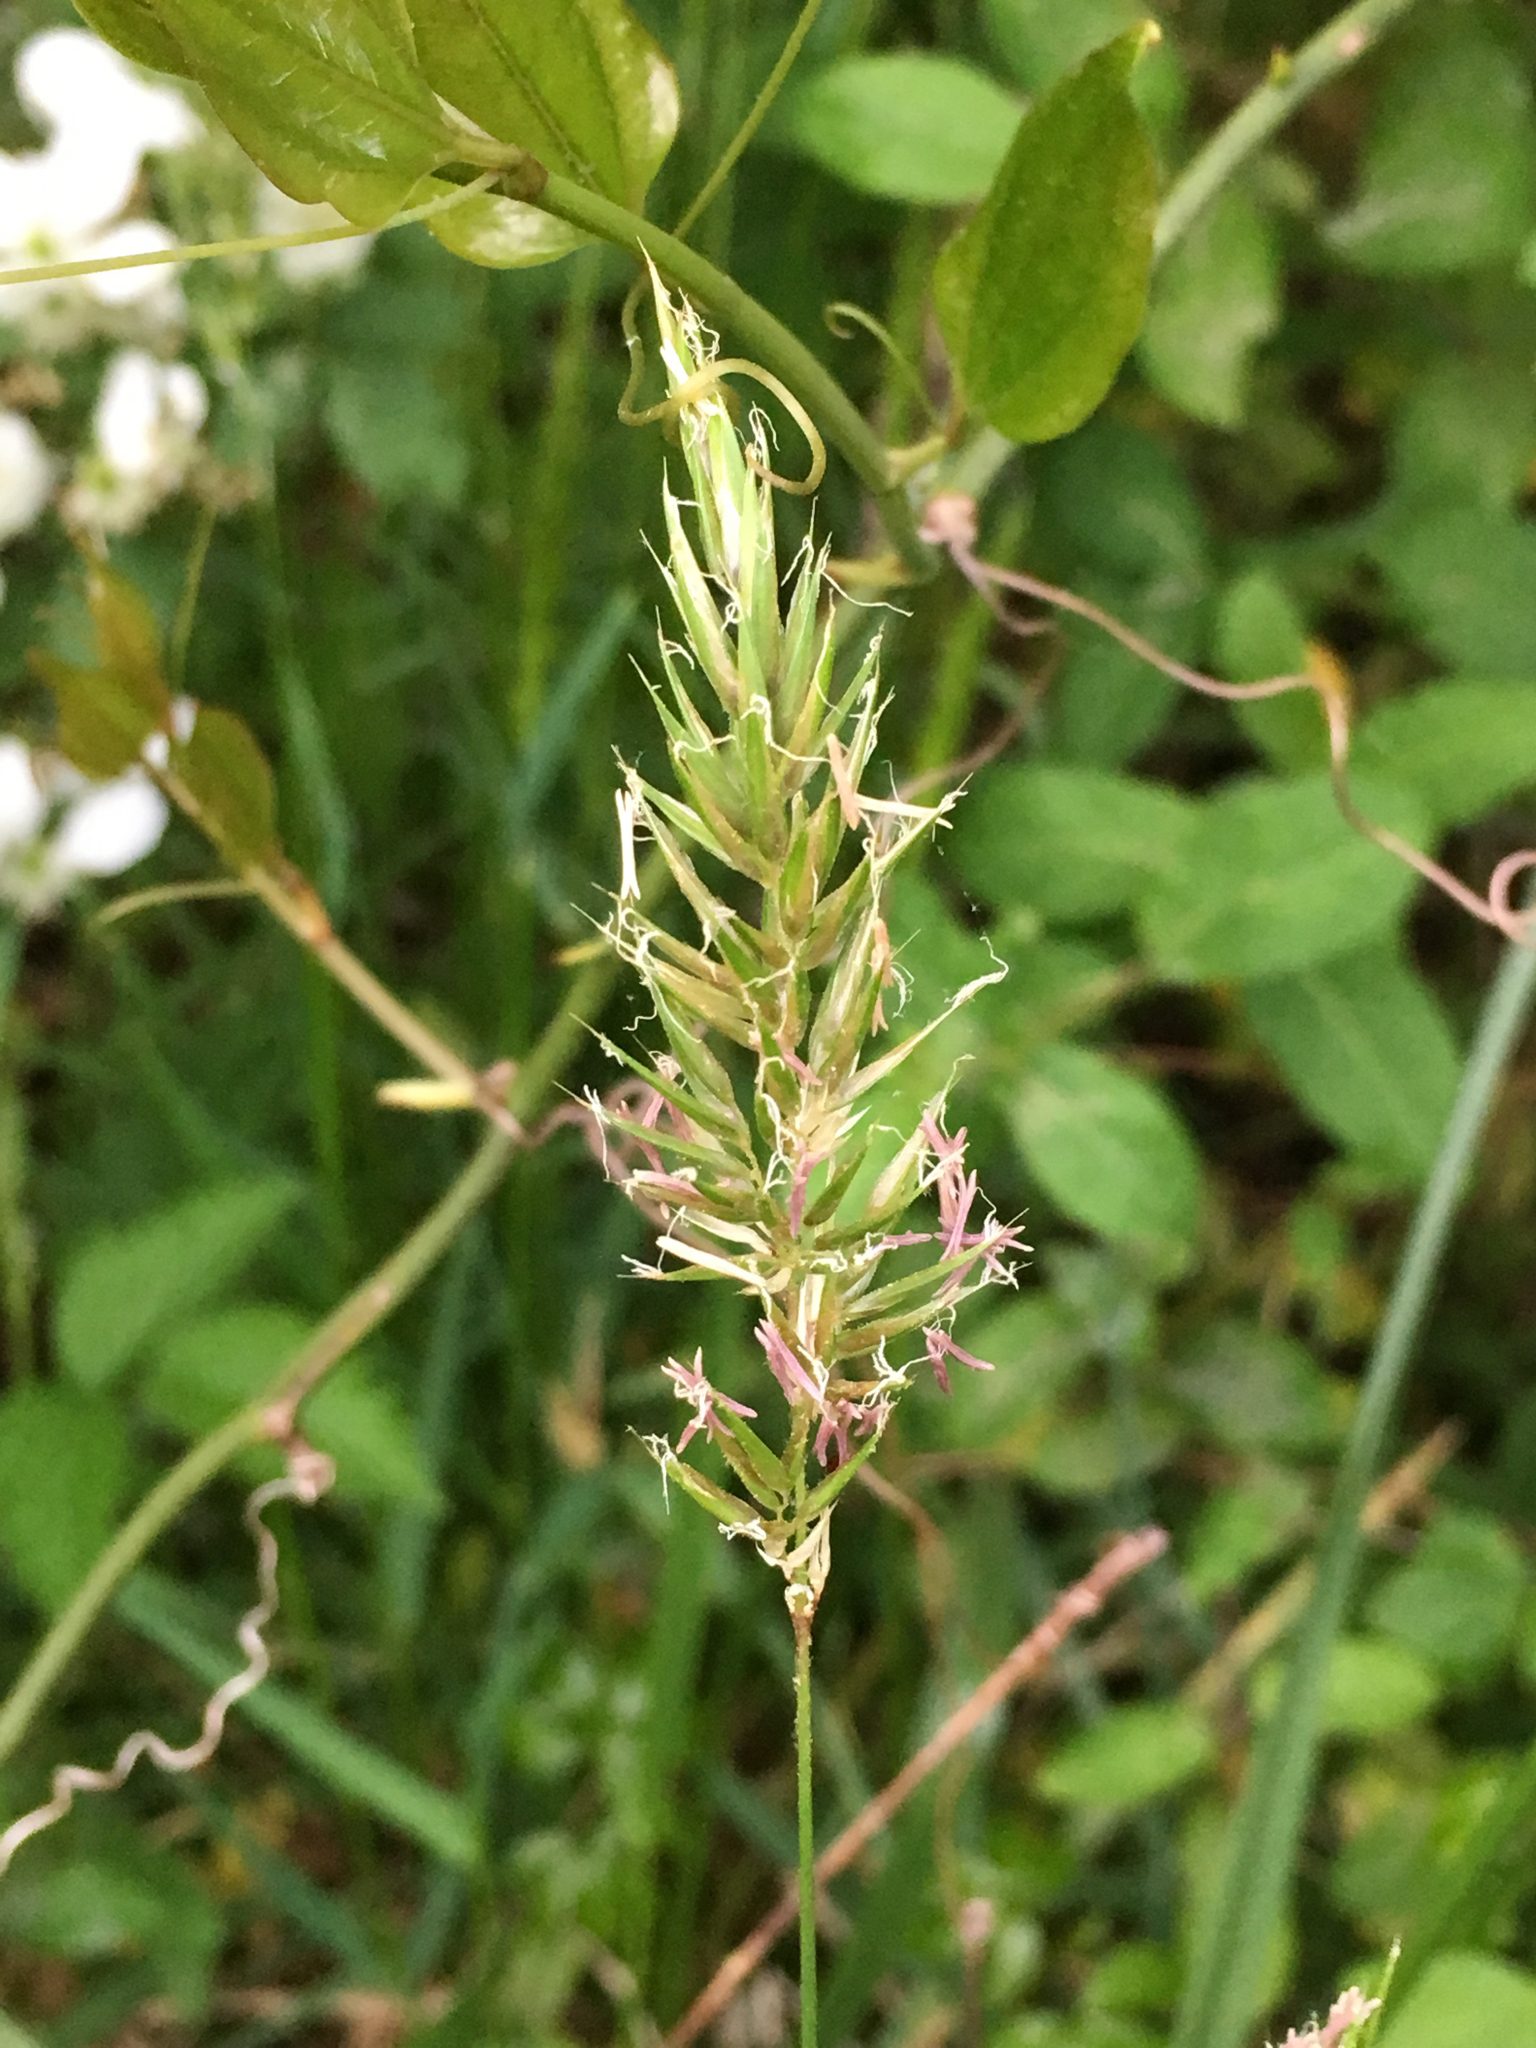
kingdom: Plantae
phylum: Tracheophyta
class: Liliopsida
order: Poales
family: Poaceae
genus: Anthoxanthum
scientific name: Anthoxanthum odoratum
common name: Sweet vernalgrass
